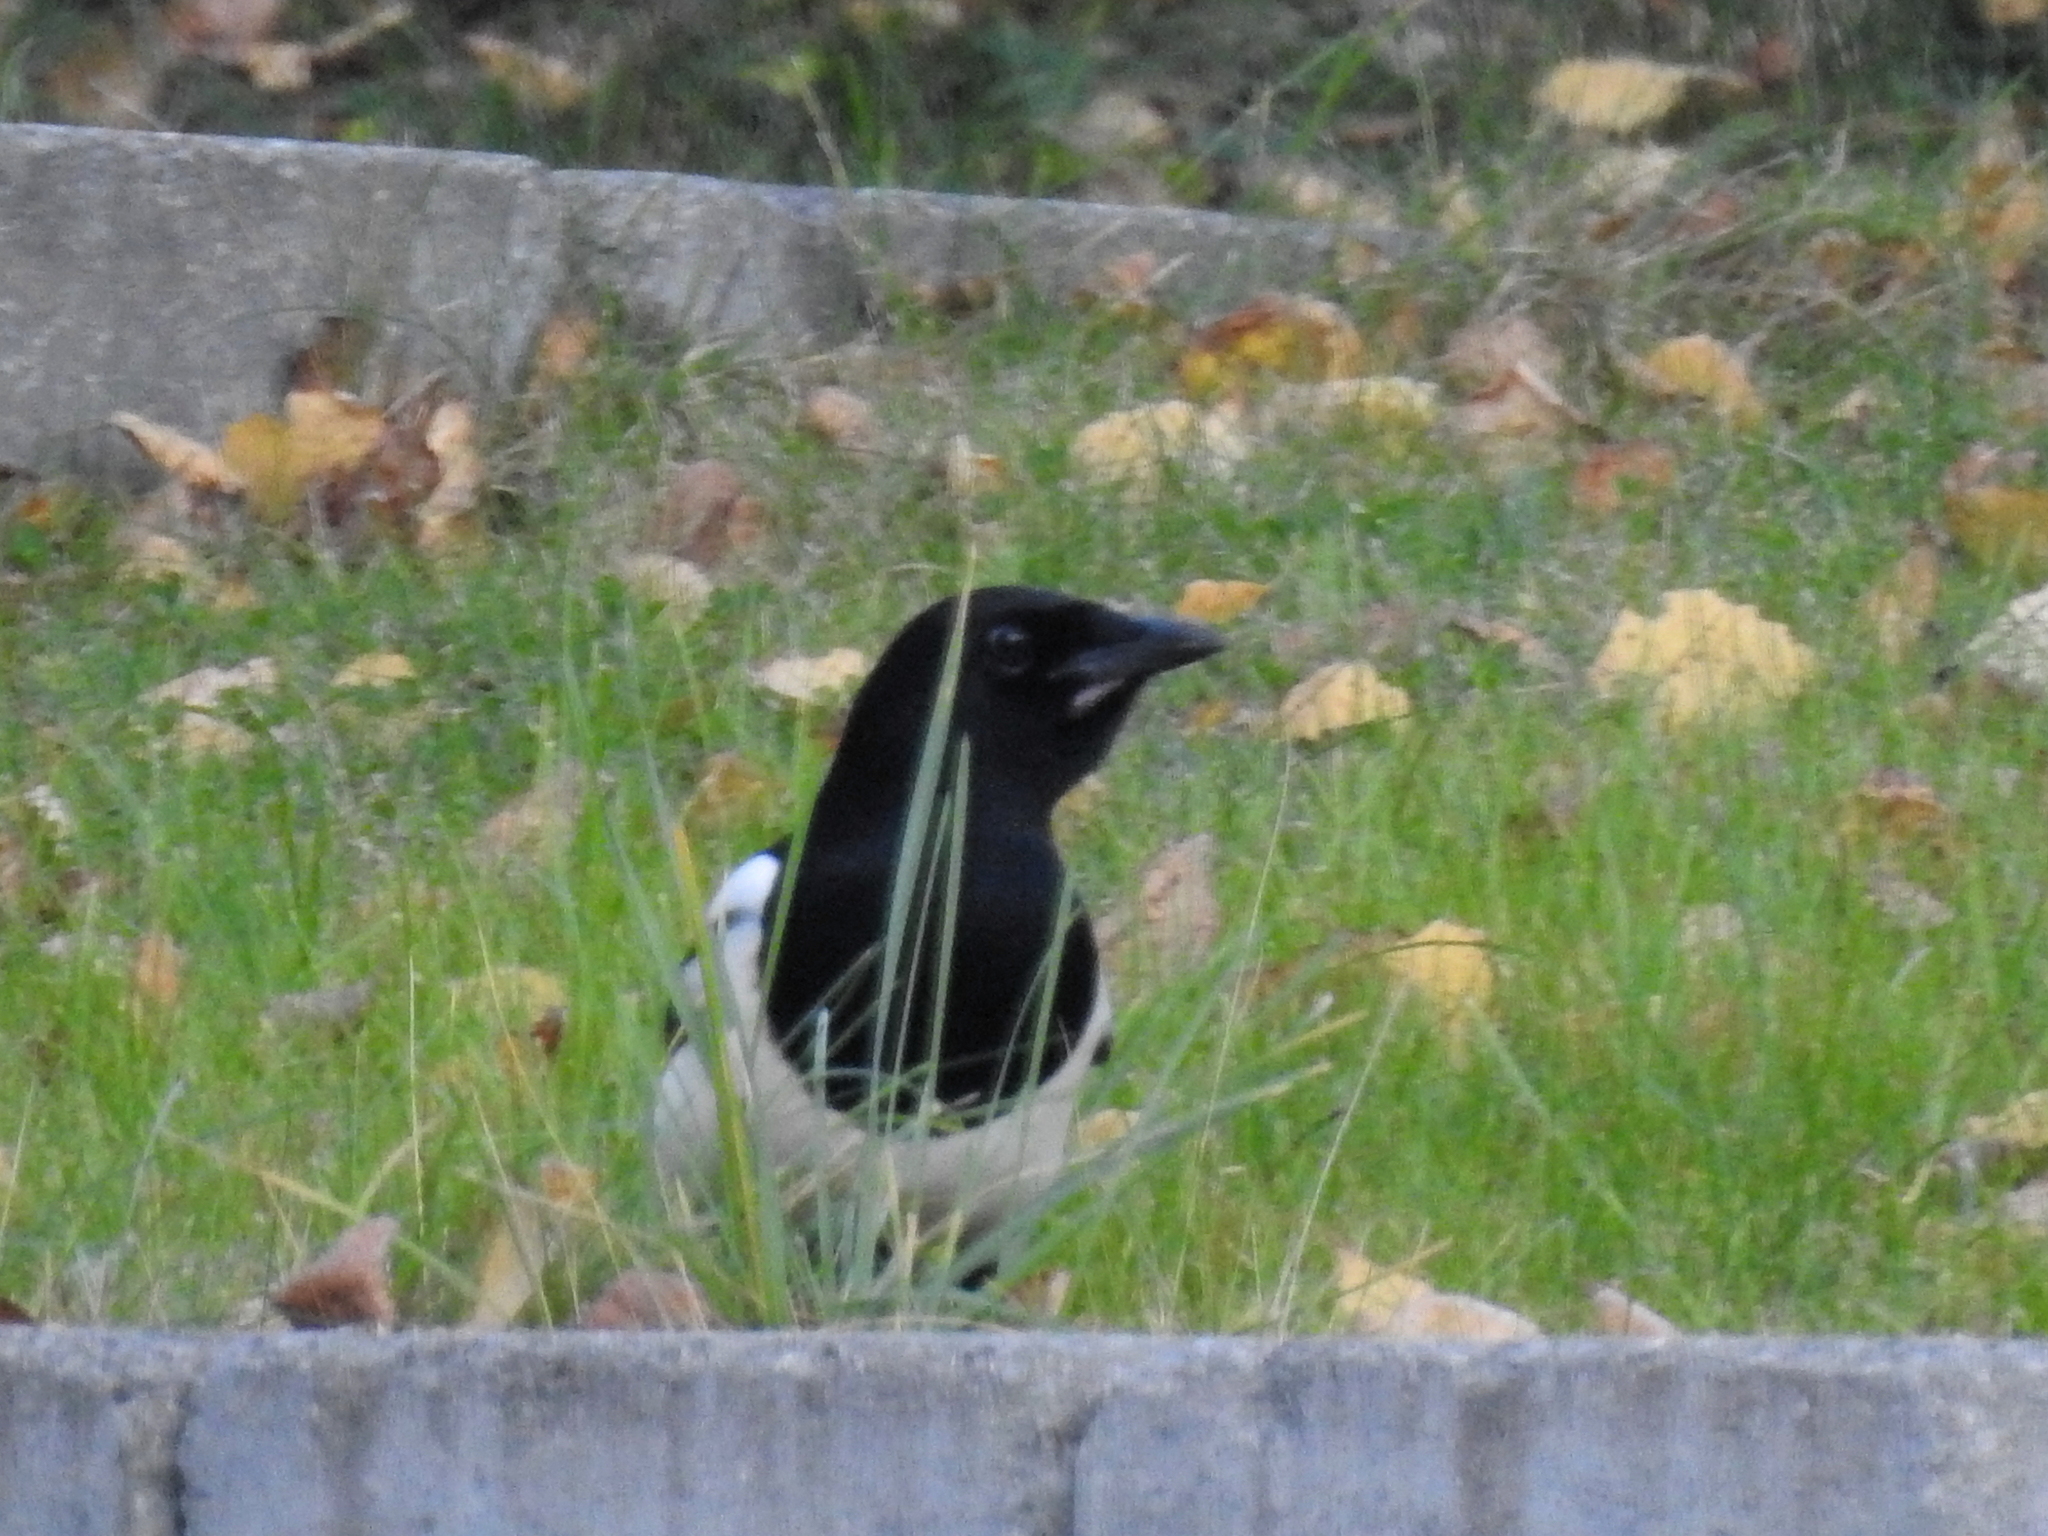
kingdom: Animalia
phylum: Chordata
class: Aves
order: Passeriformes
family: Corvidae
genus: Pica
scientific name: Pica pica
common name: Eurasian magpie
